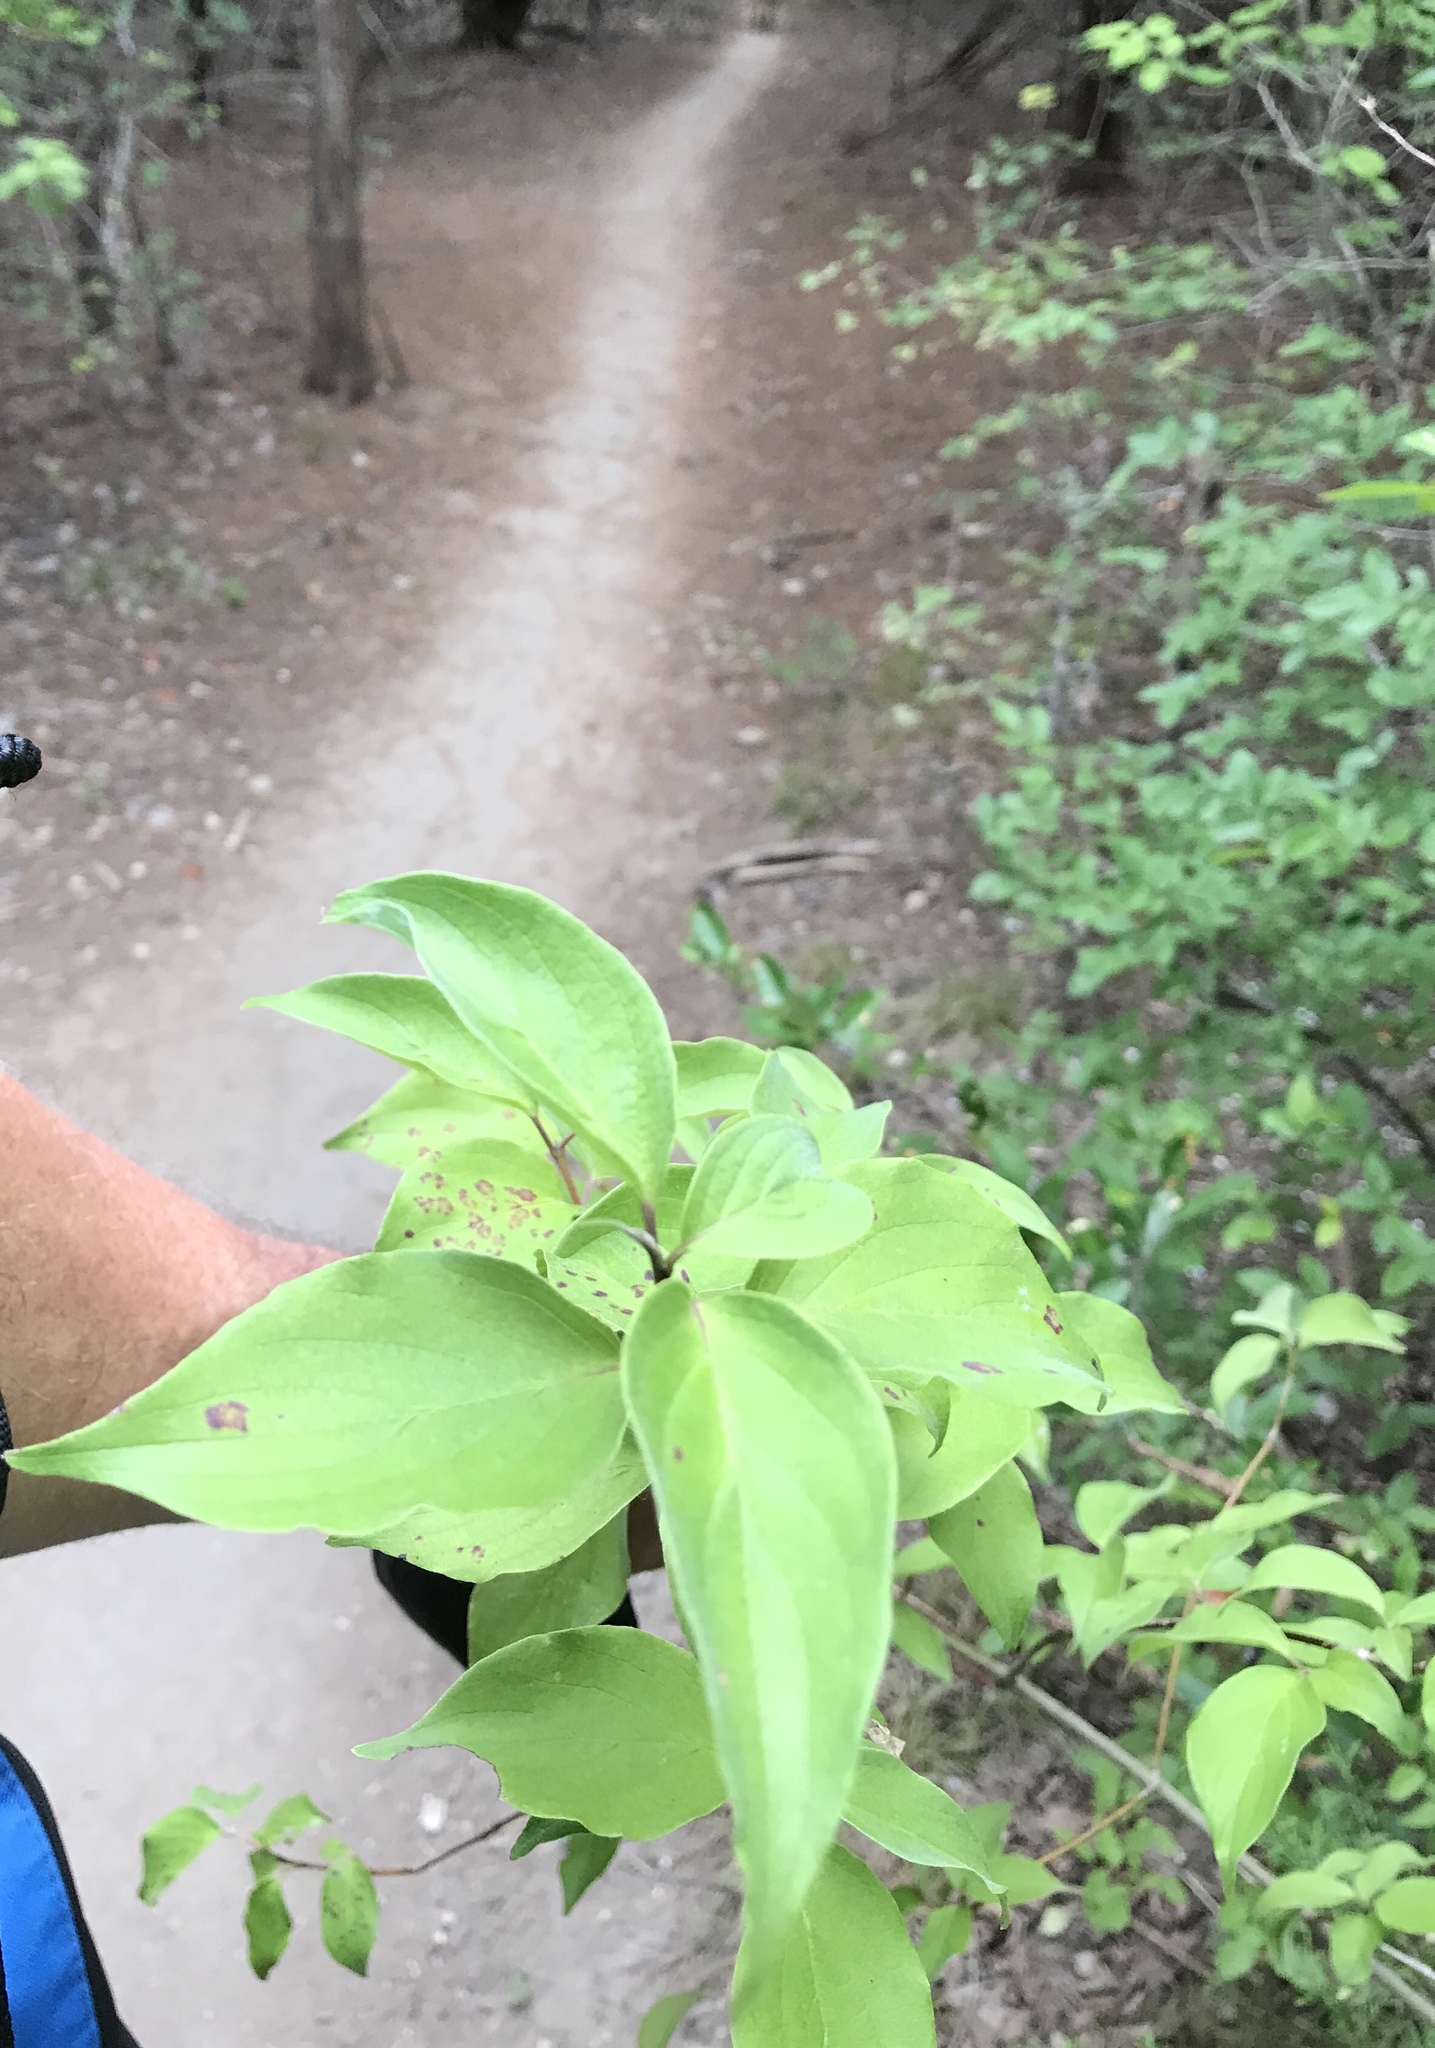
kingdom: Plantae
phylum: Tracheophyta
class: Magnoliopsida
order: Cornales
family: Cornaceae
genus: Cornus
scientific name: Cornus drummondii
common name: Rough-leaf dogwood
